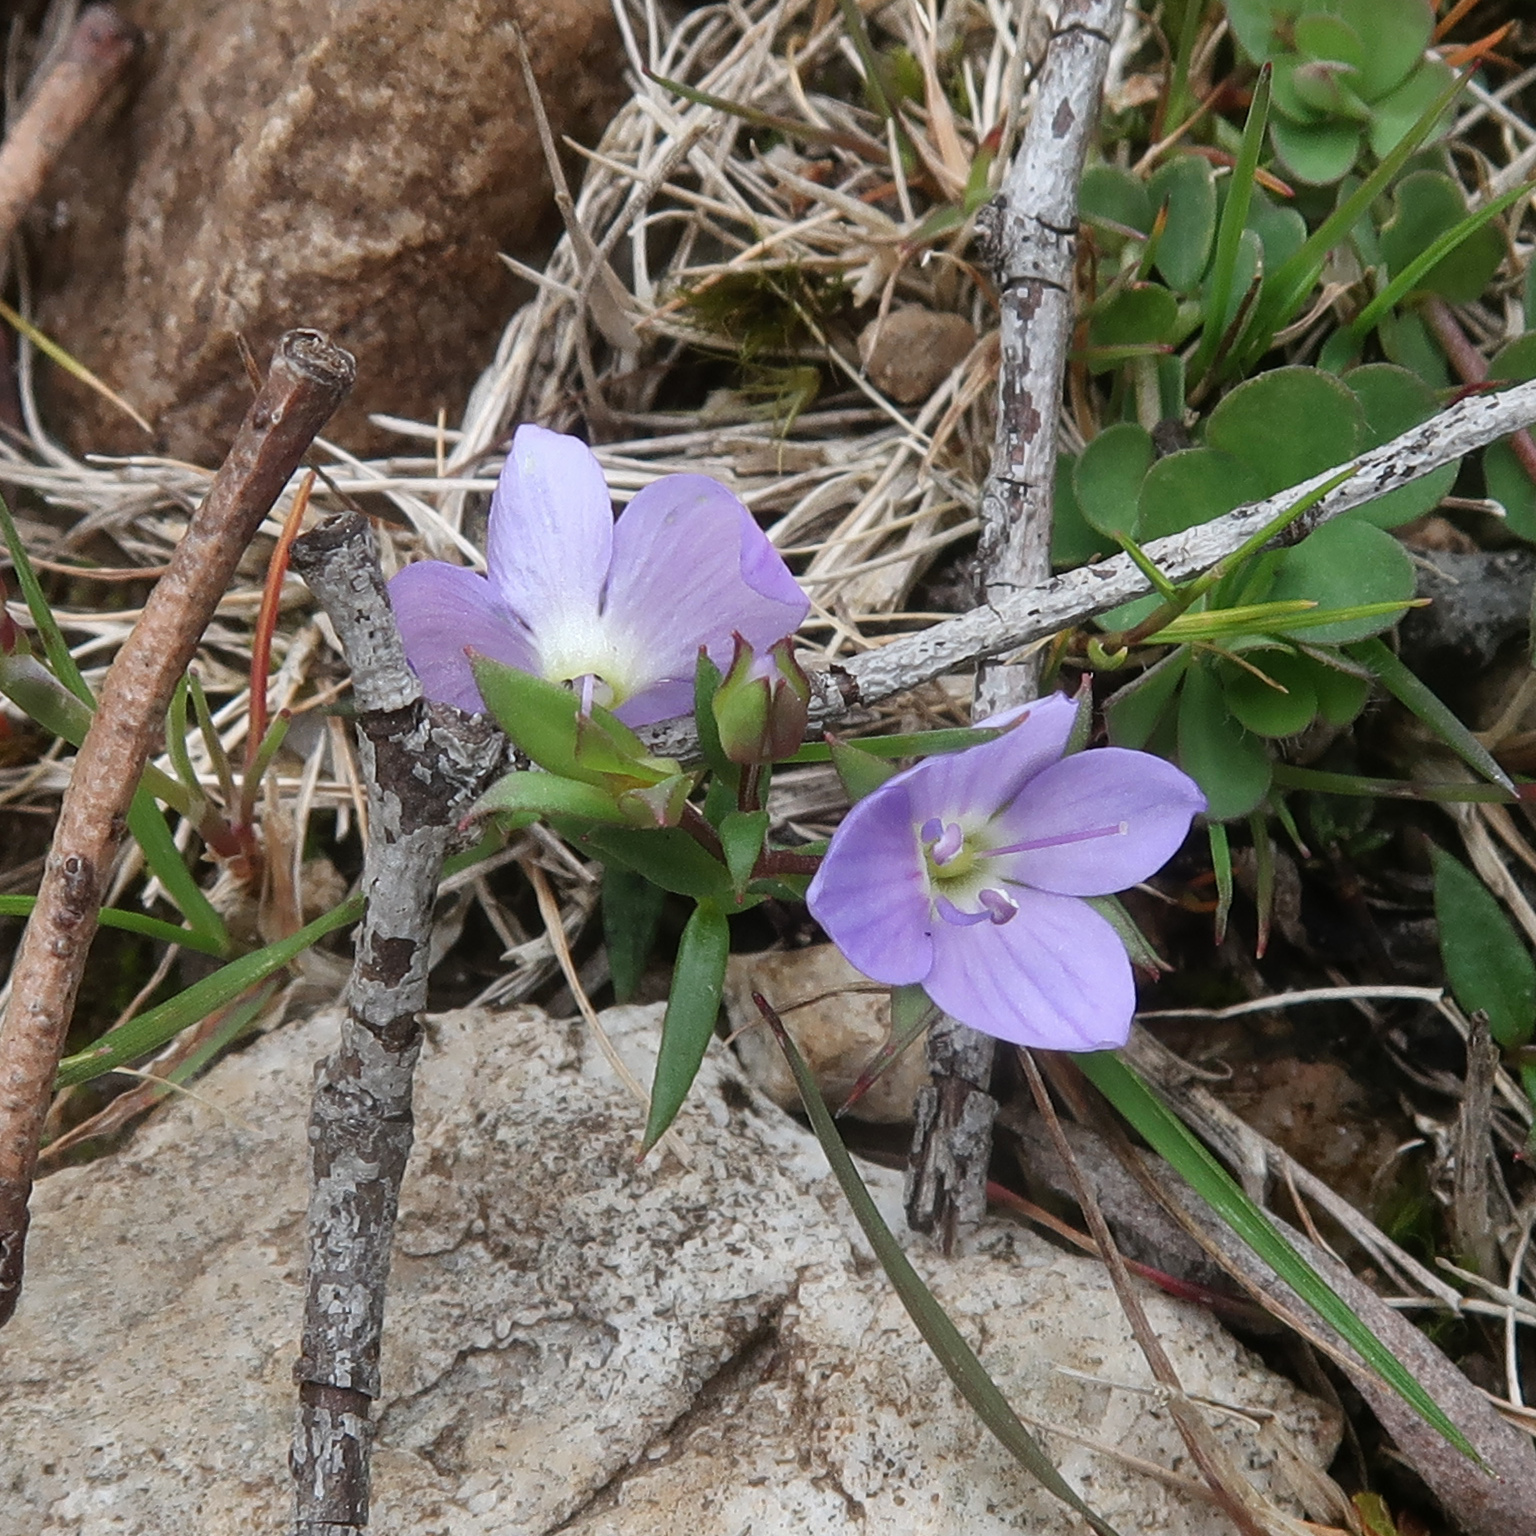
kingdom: Plantae
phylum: Tracheophyta
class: Magnoliopsida
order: Lamiales
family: Plantaginaceae
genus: Veronica
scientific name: Veronica gracilis
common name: Slender speedwell
